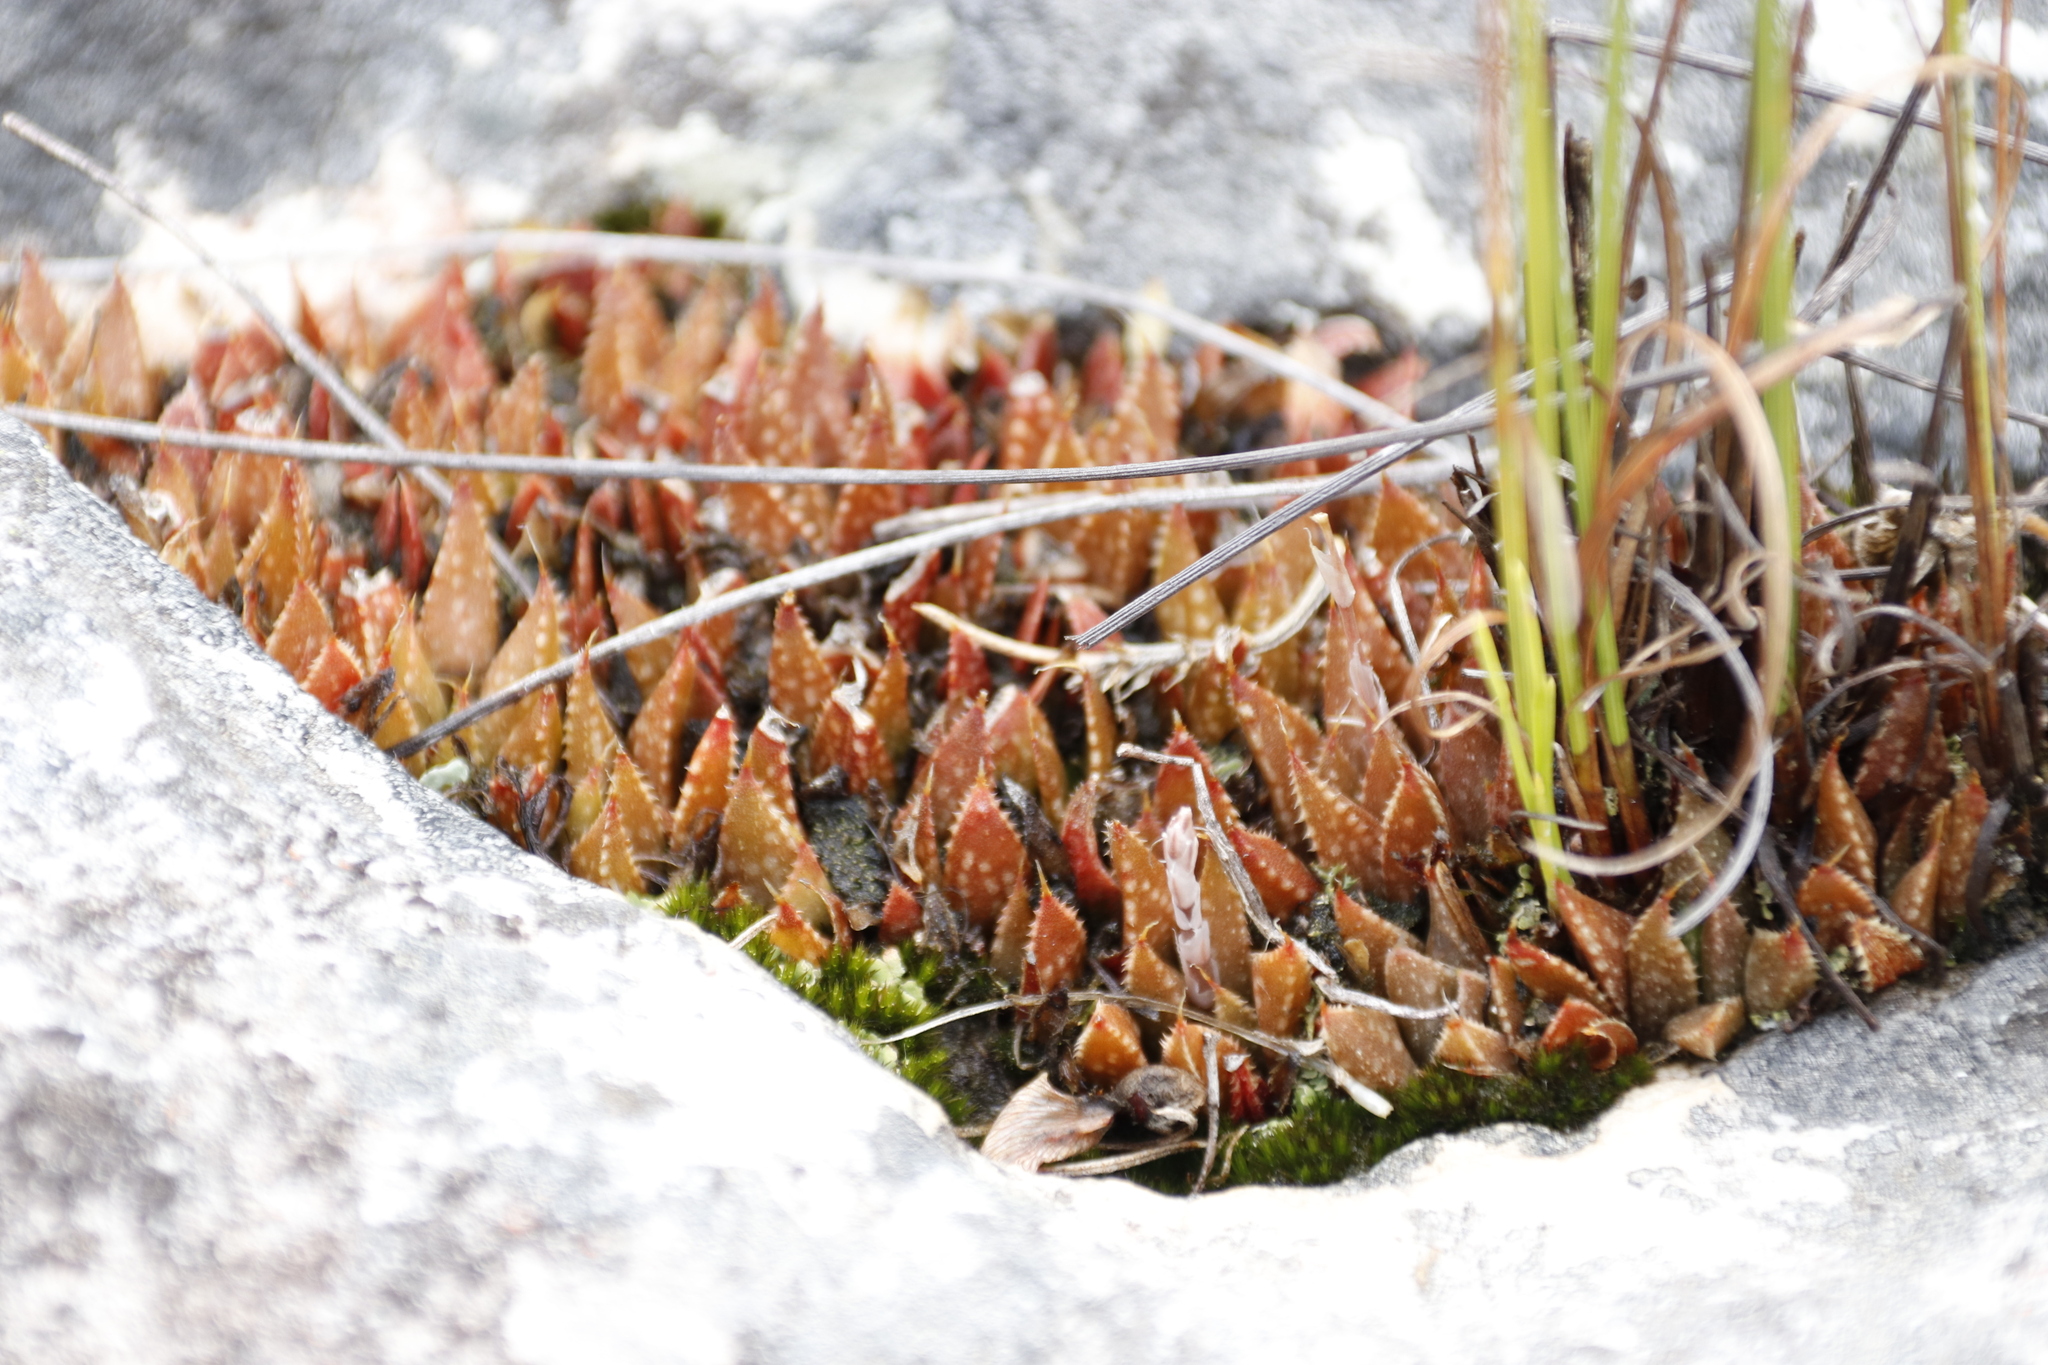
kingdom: Plantae
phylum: Tracheophyta
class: Liliopsida
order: Asparagales
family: Asphodelaceae
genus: Haworthia
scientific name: Haworthia variegata
